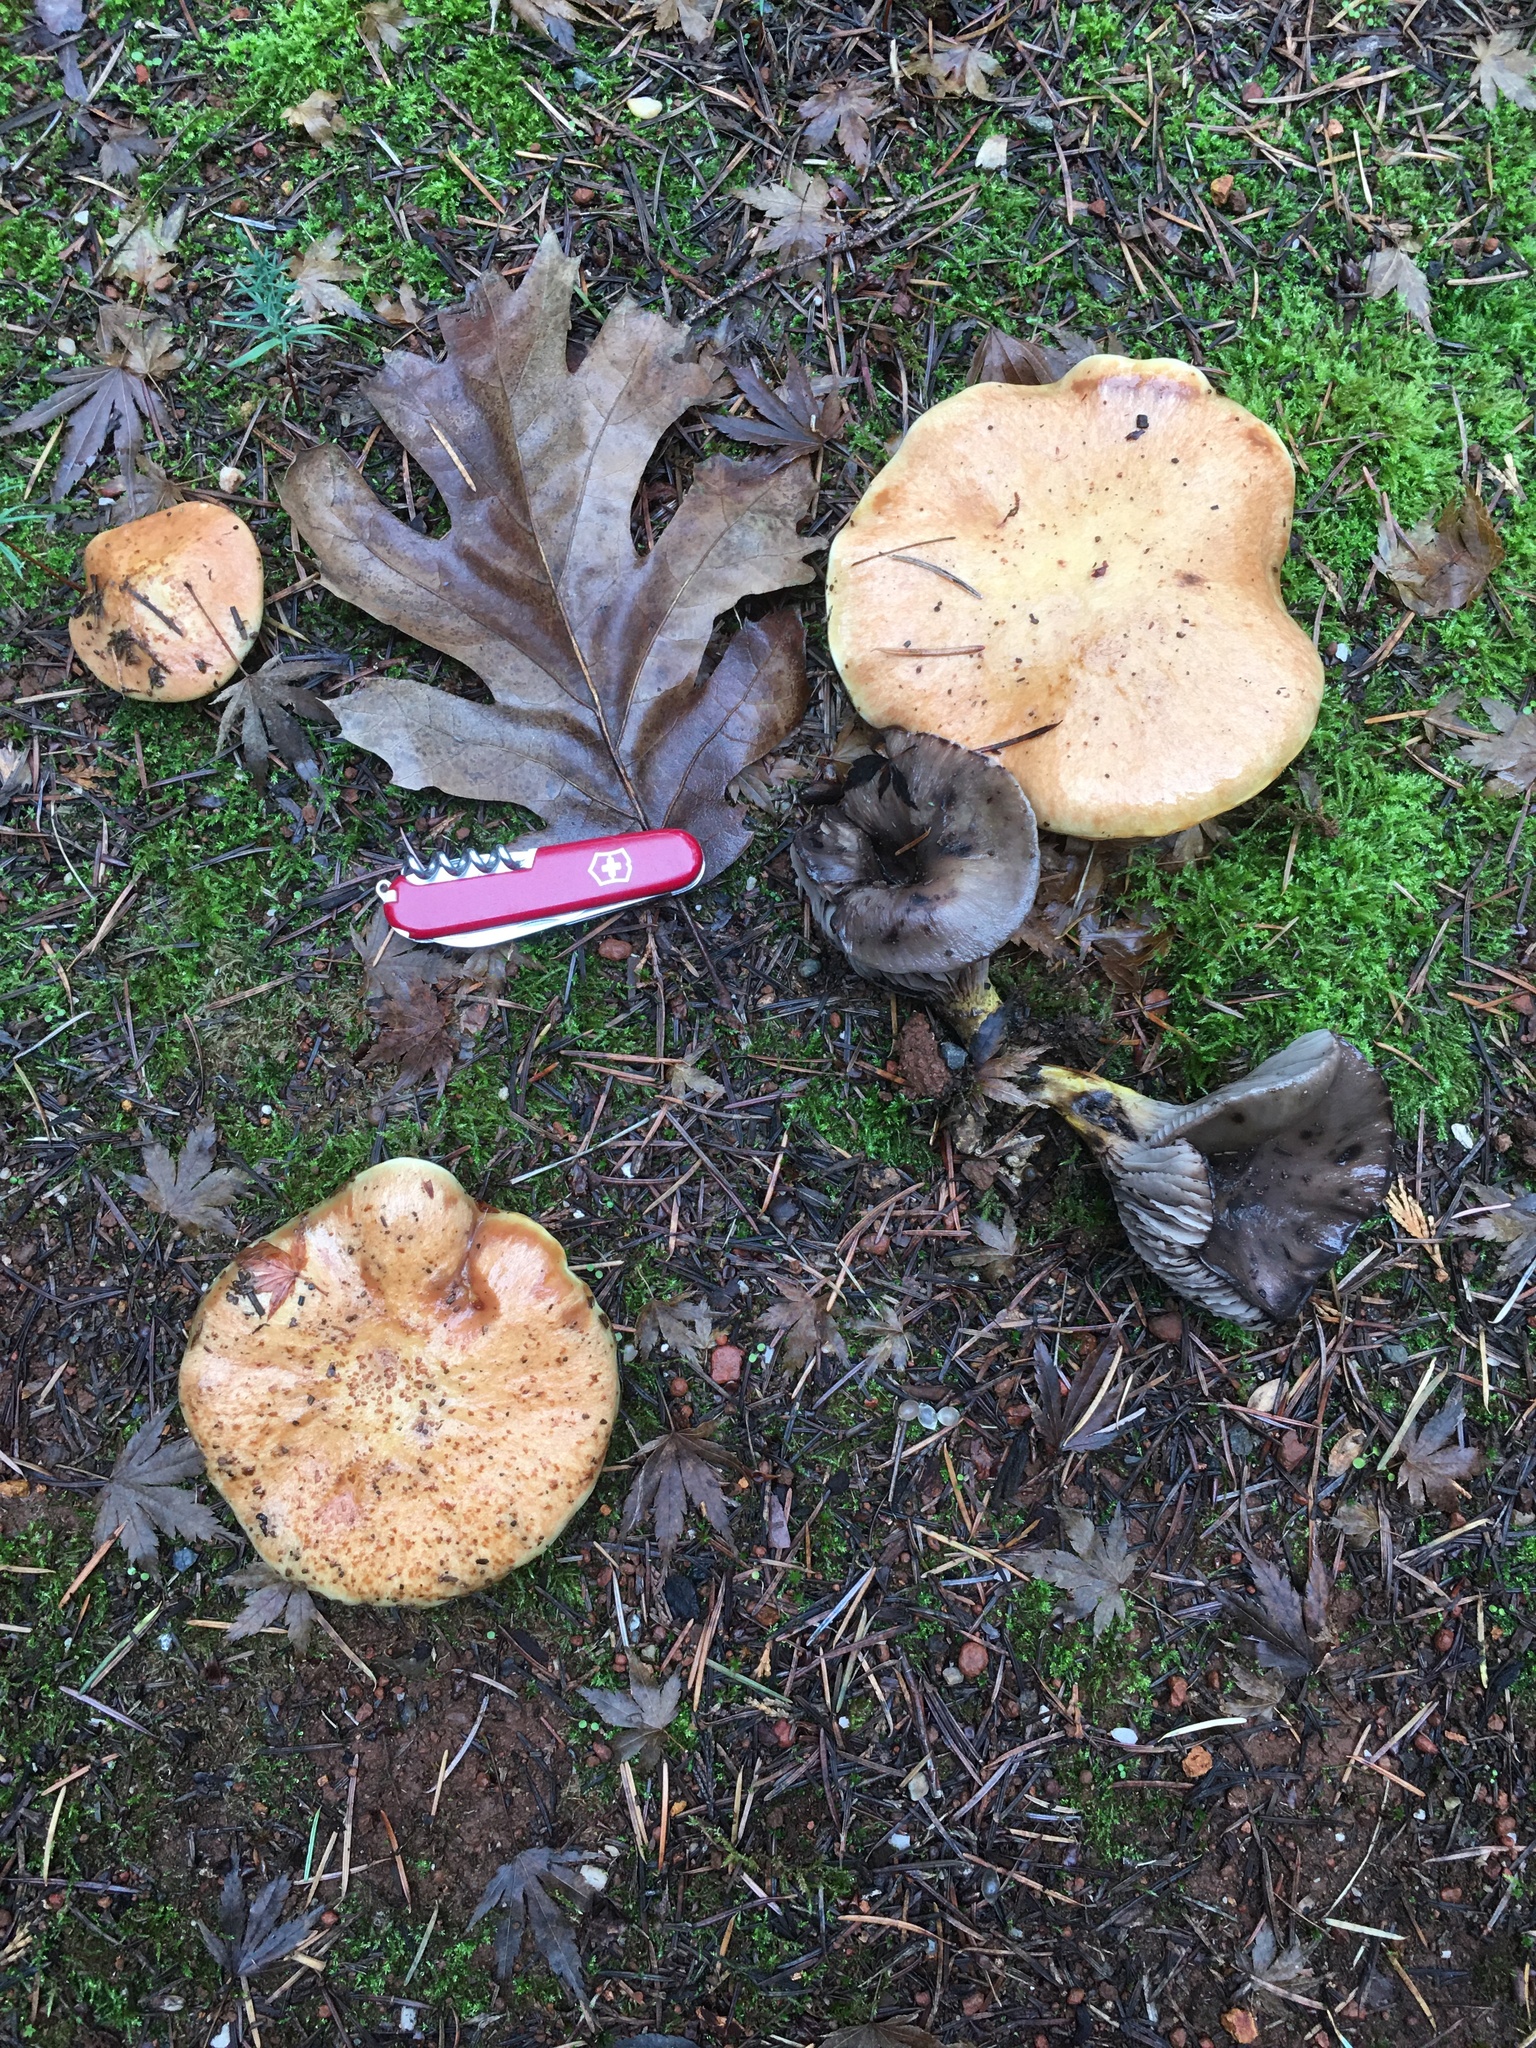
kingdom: Fungi
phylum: Basidiomycota
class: Agaricomycetes
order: Boletales
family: Gomphidiaceae
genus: Gomphidius
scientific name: Gomphidius oregonensis
